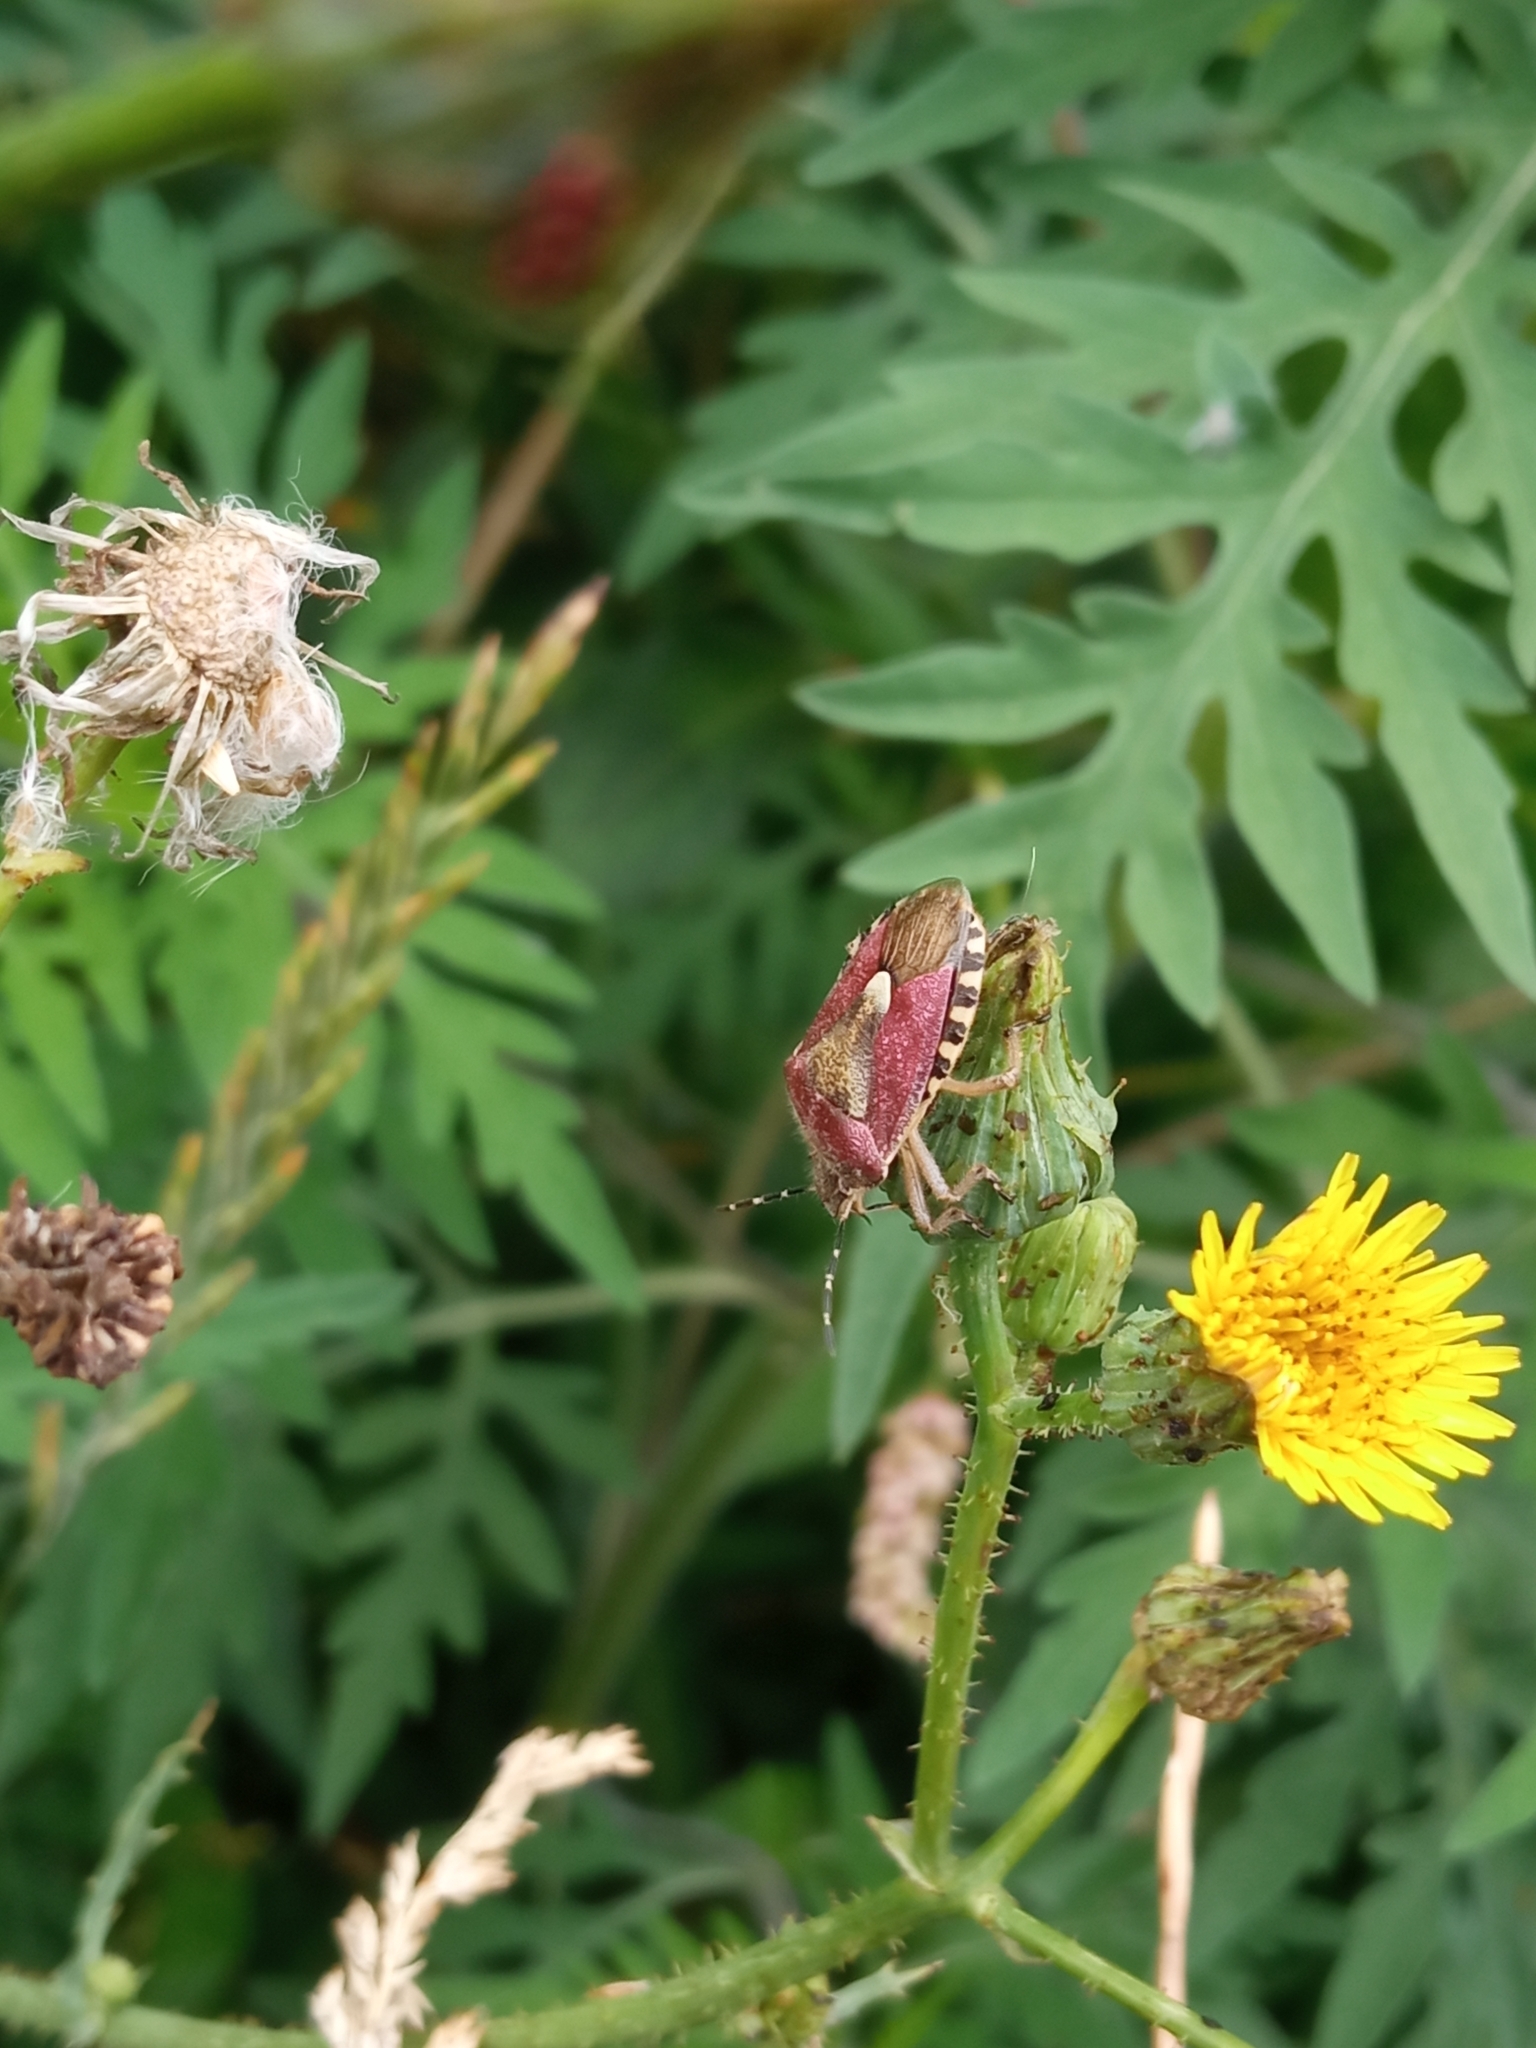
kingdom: Animalia
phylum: Arthropoda
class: Insecta
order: Hemiptera
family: Pentatomidae
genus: Dolycoris
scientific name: Dolycoris baccarum
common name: Sloe bug
